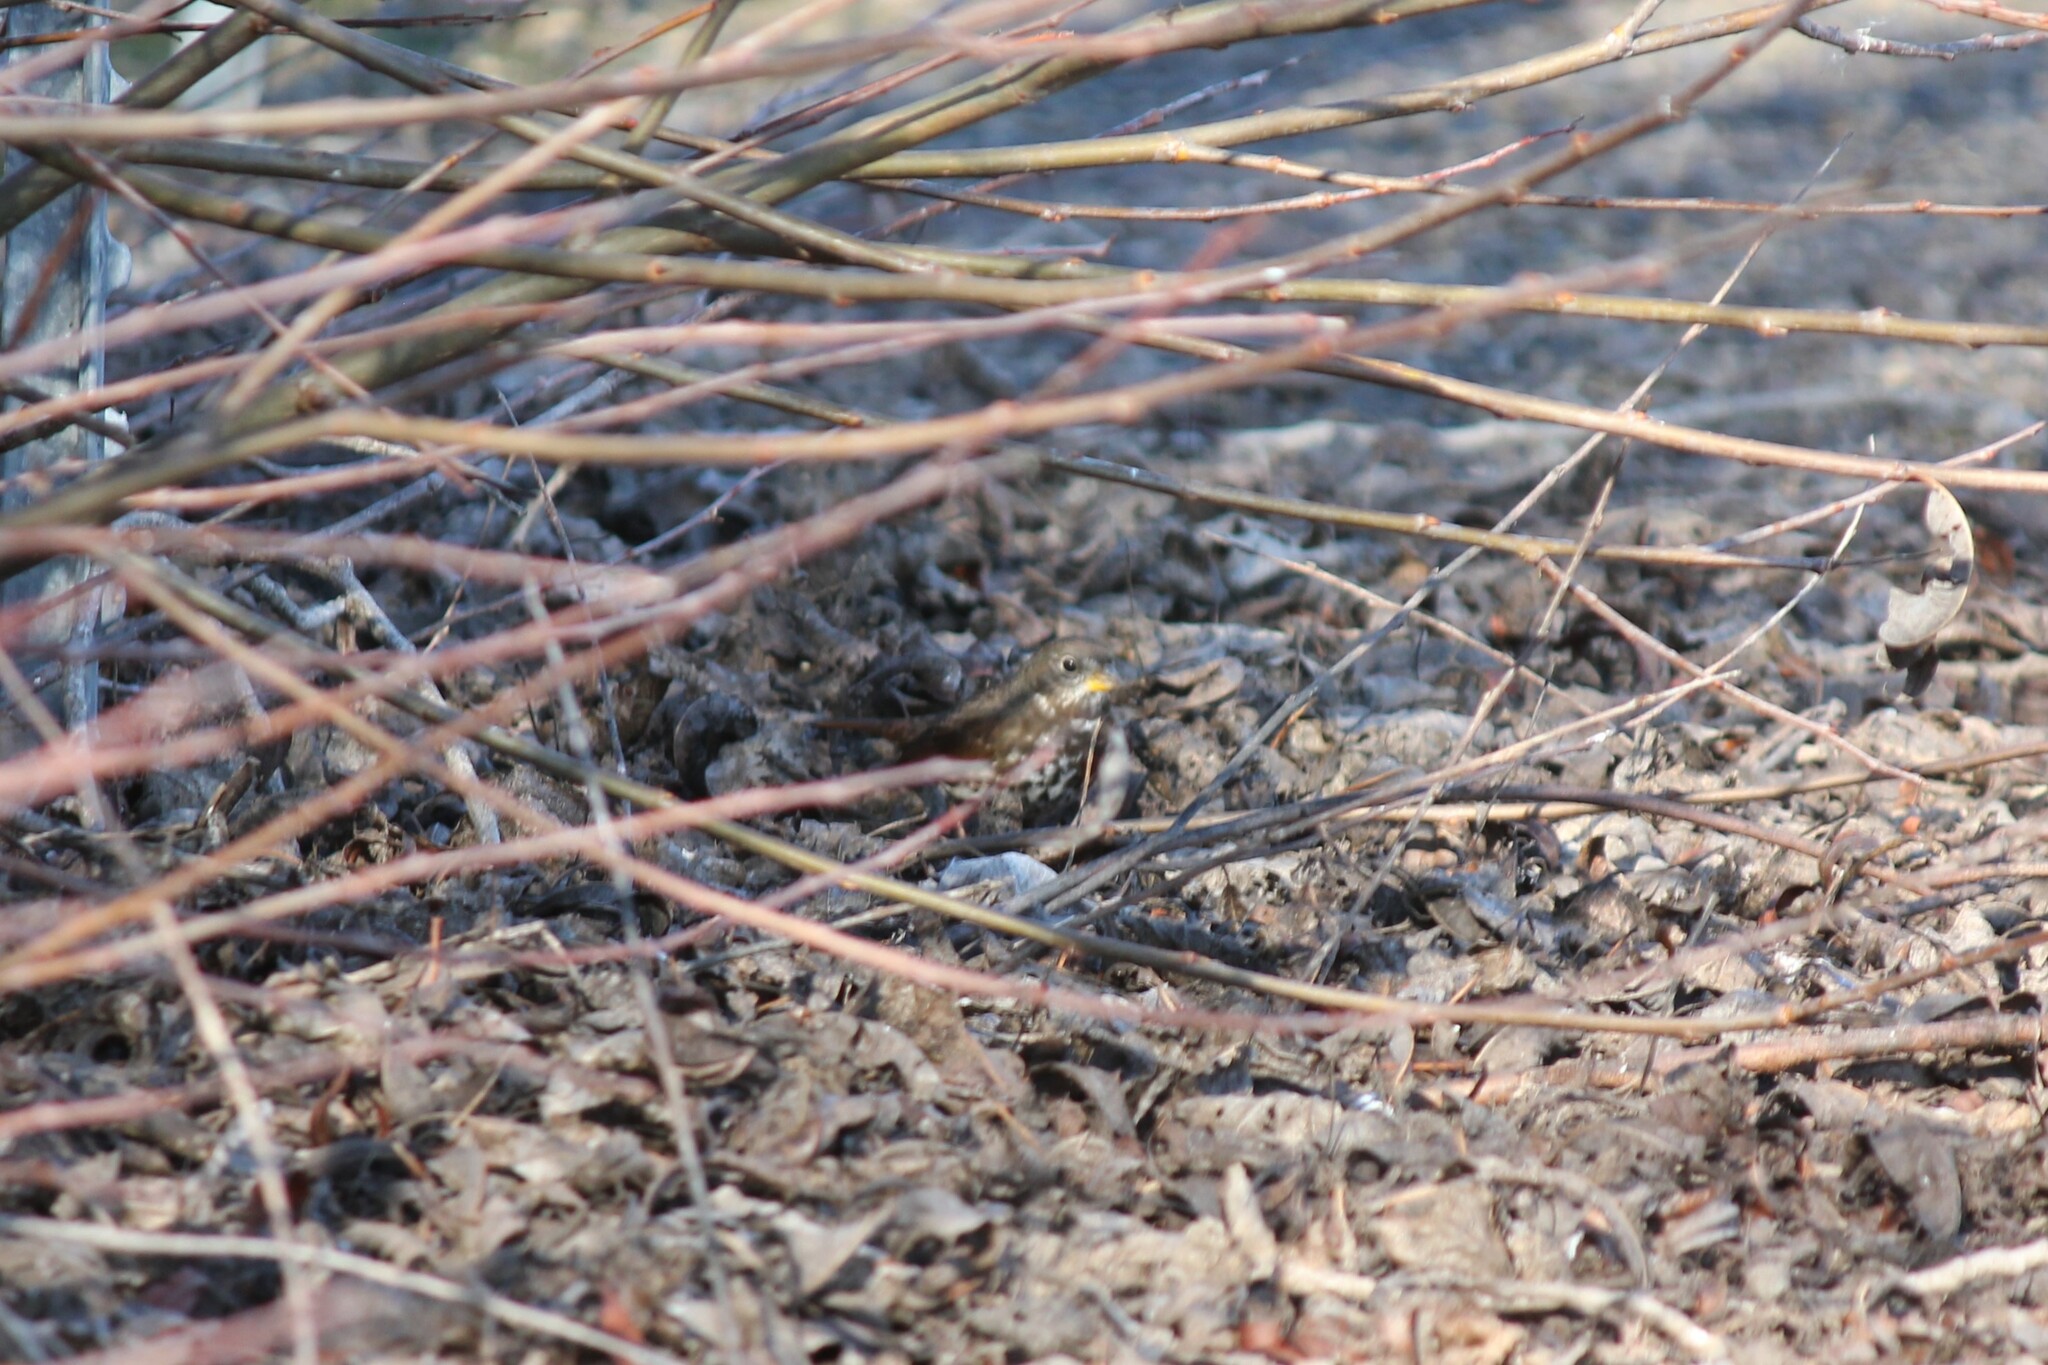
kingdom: Animalia
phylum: Chordata
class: Aves
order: Passeriformes
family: Passerellidae
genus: Passerella
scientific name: Passerella iliaca
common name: Fox sparrow
